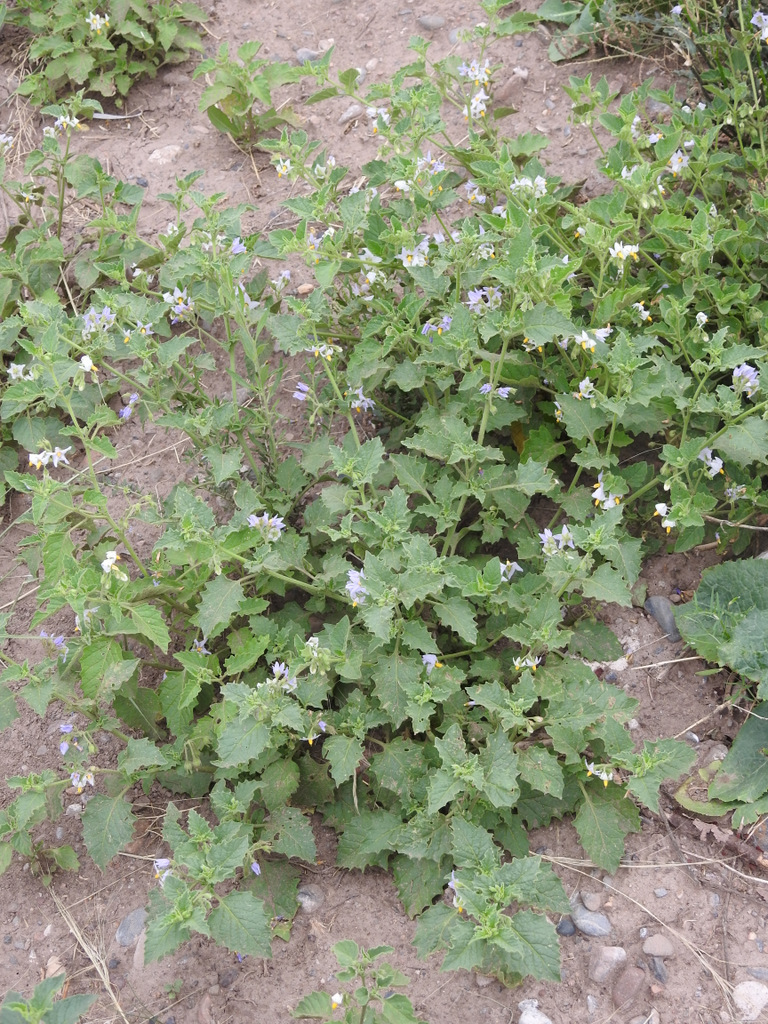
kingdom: Plantae
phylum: Tracheophyta
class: Magnoliopsida
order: Solanales
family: Solanaceae
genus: Solanum
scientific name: Solanum tweedianum
